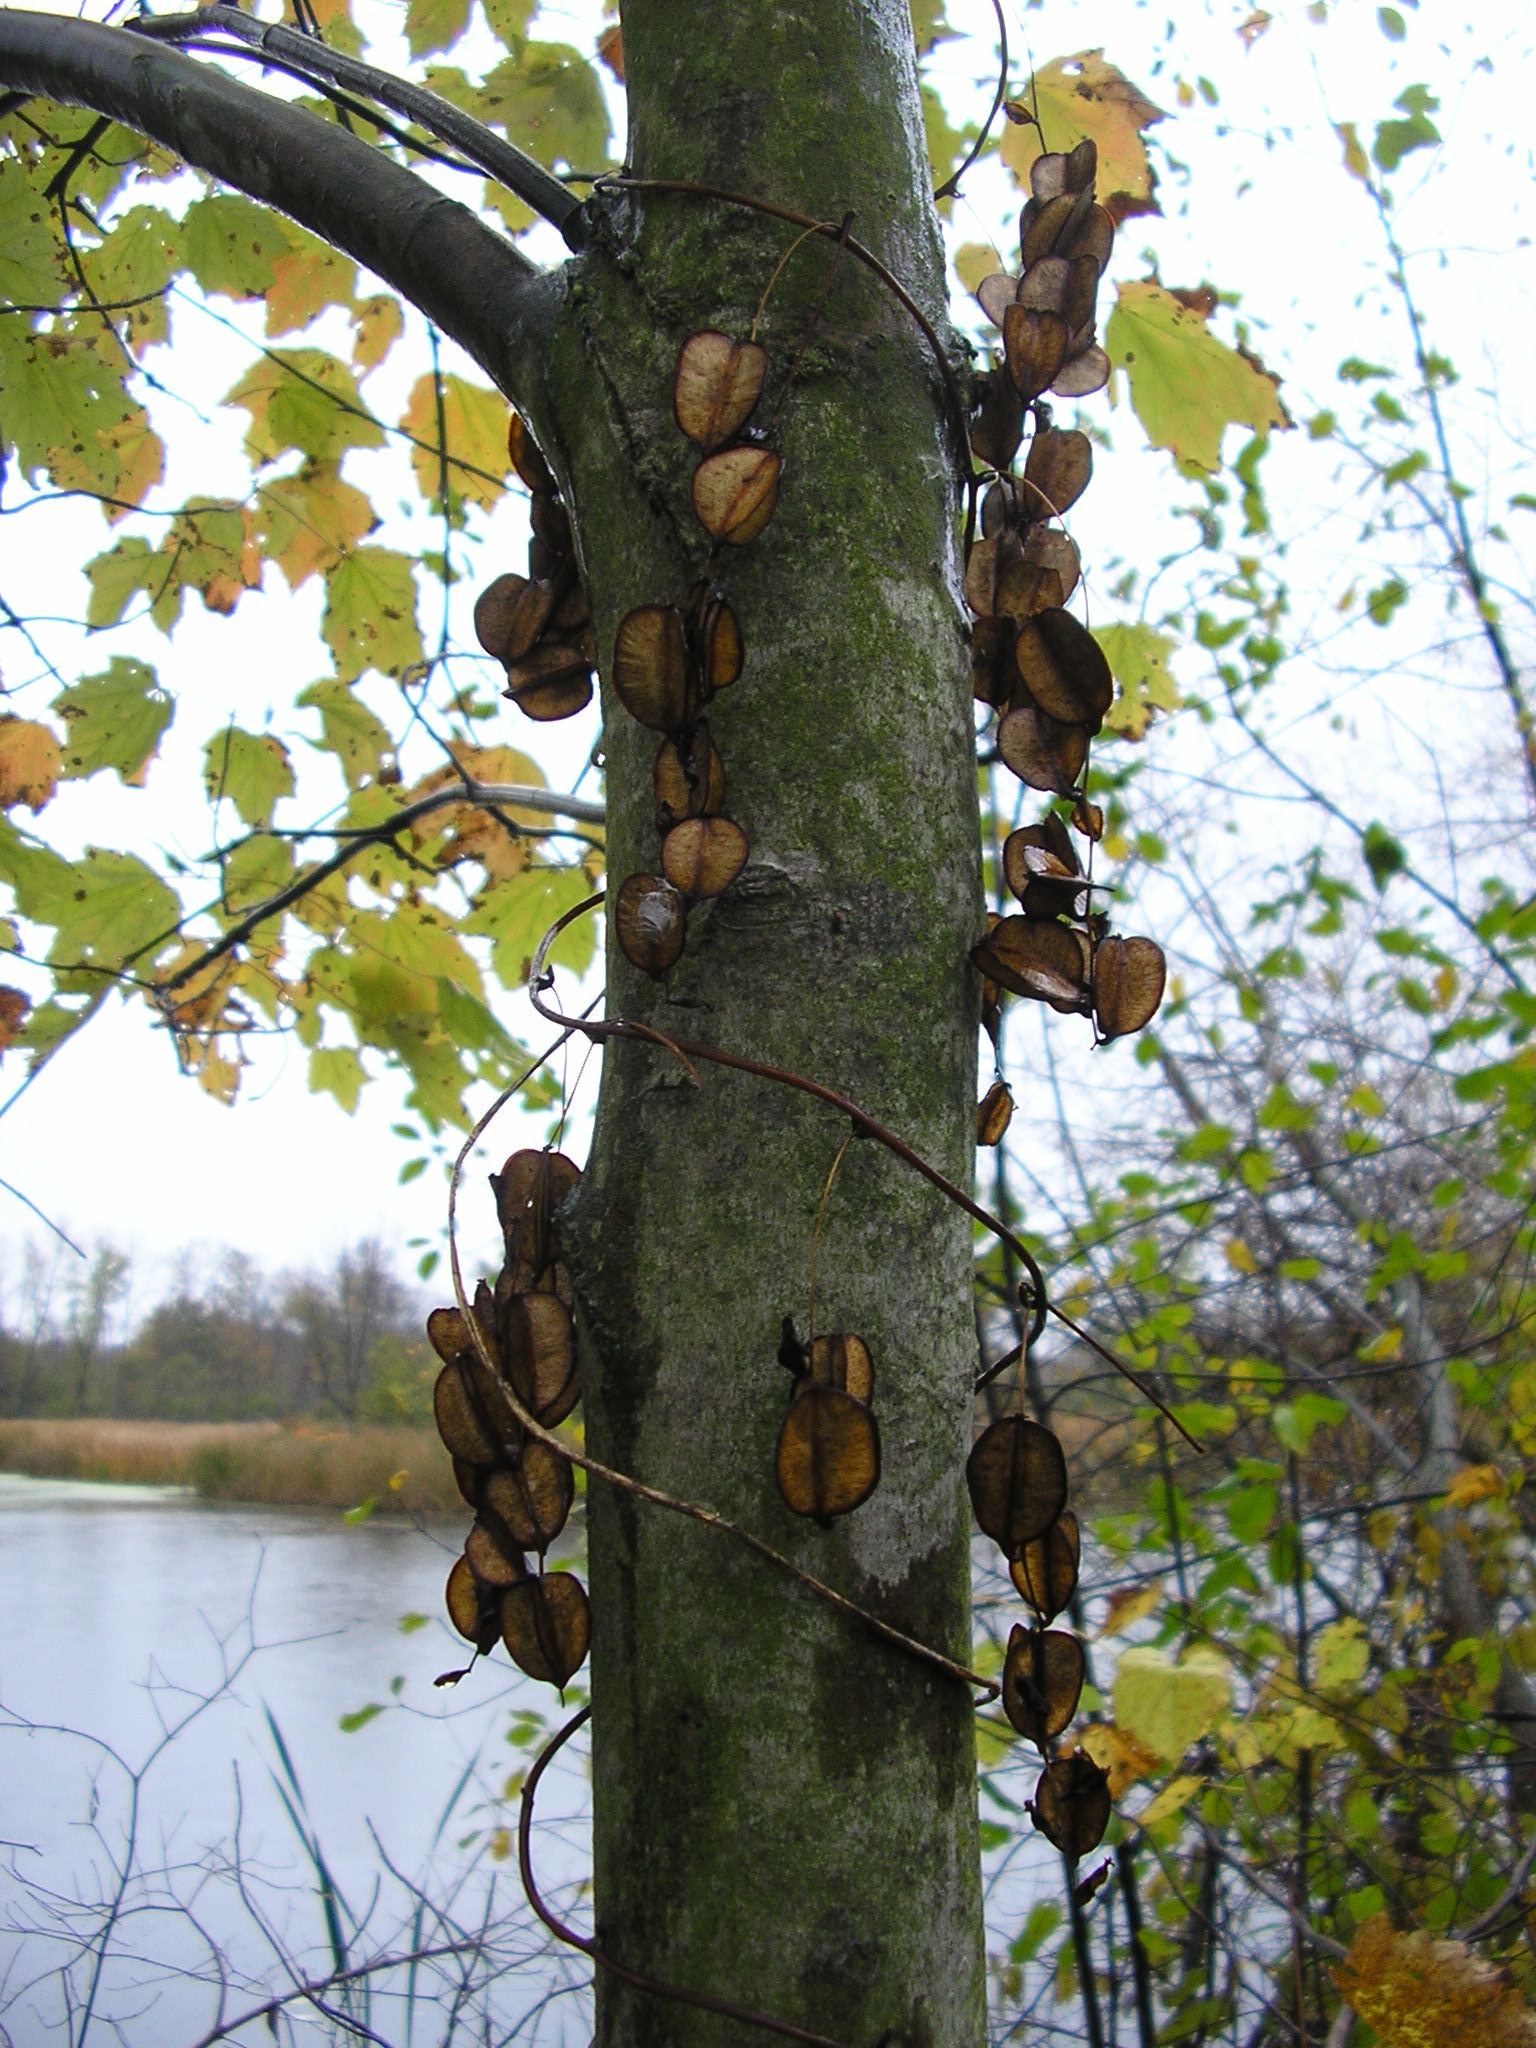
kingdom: Plantae
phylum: Tracheophyta
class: Liliopsida
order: Dioscoreales
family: Dioscoreaceae
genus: Dioscorea
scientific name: Dioscorea villosa
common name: Wild yam
